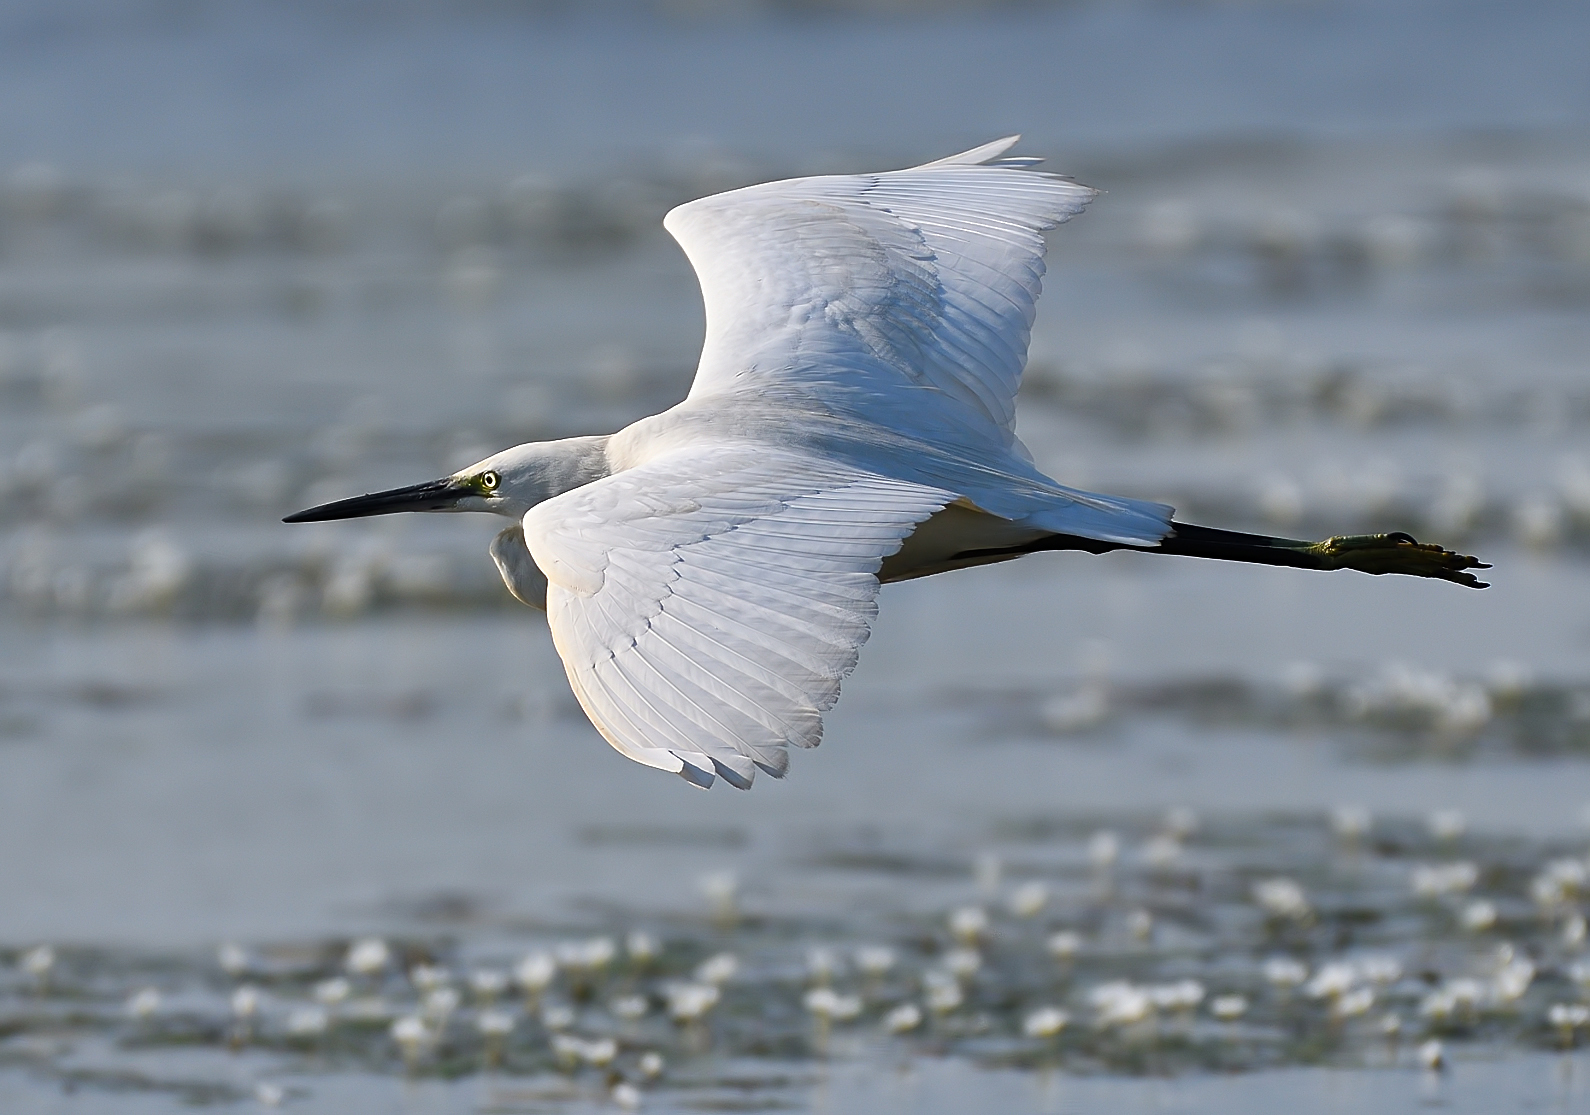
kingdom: Animalia
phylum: Chordata
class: Aves
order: Pelecaniformes
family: Ardeidae
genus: Egretta
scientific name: Egretta garzetta
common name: Little egret
